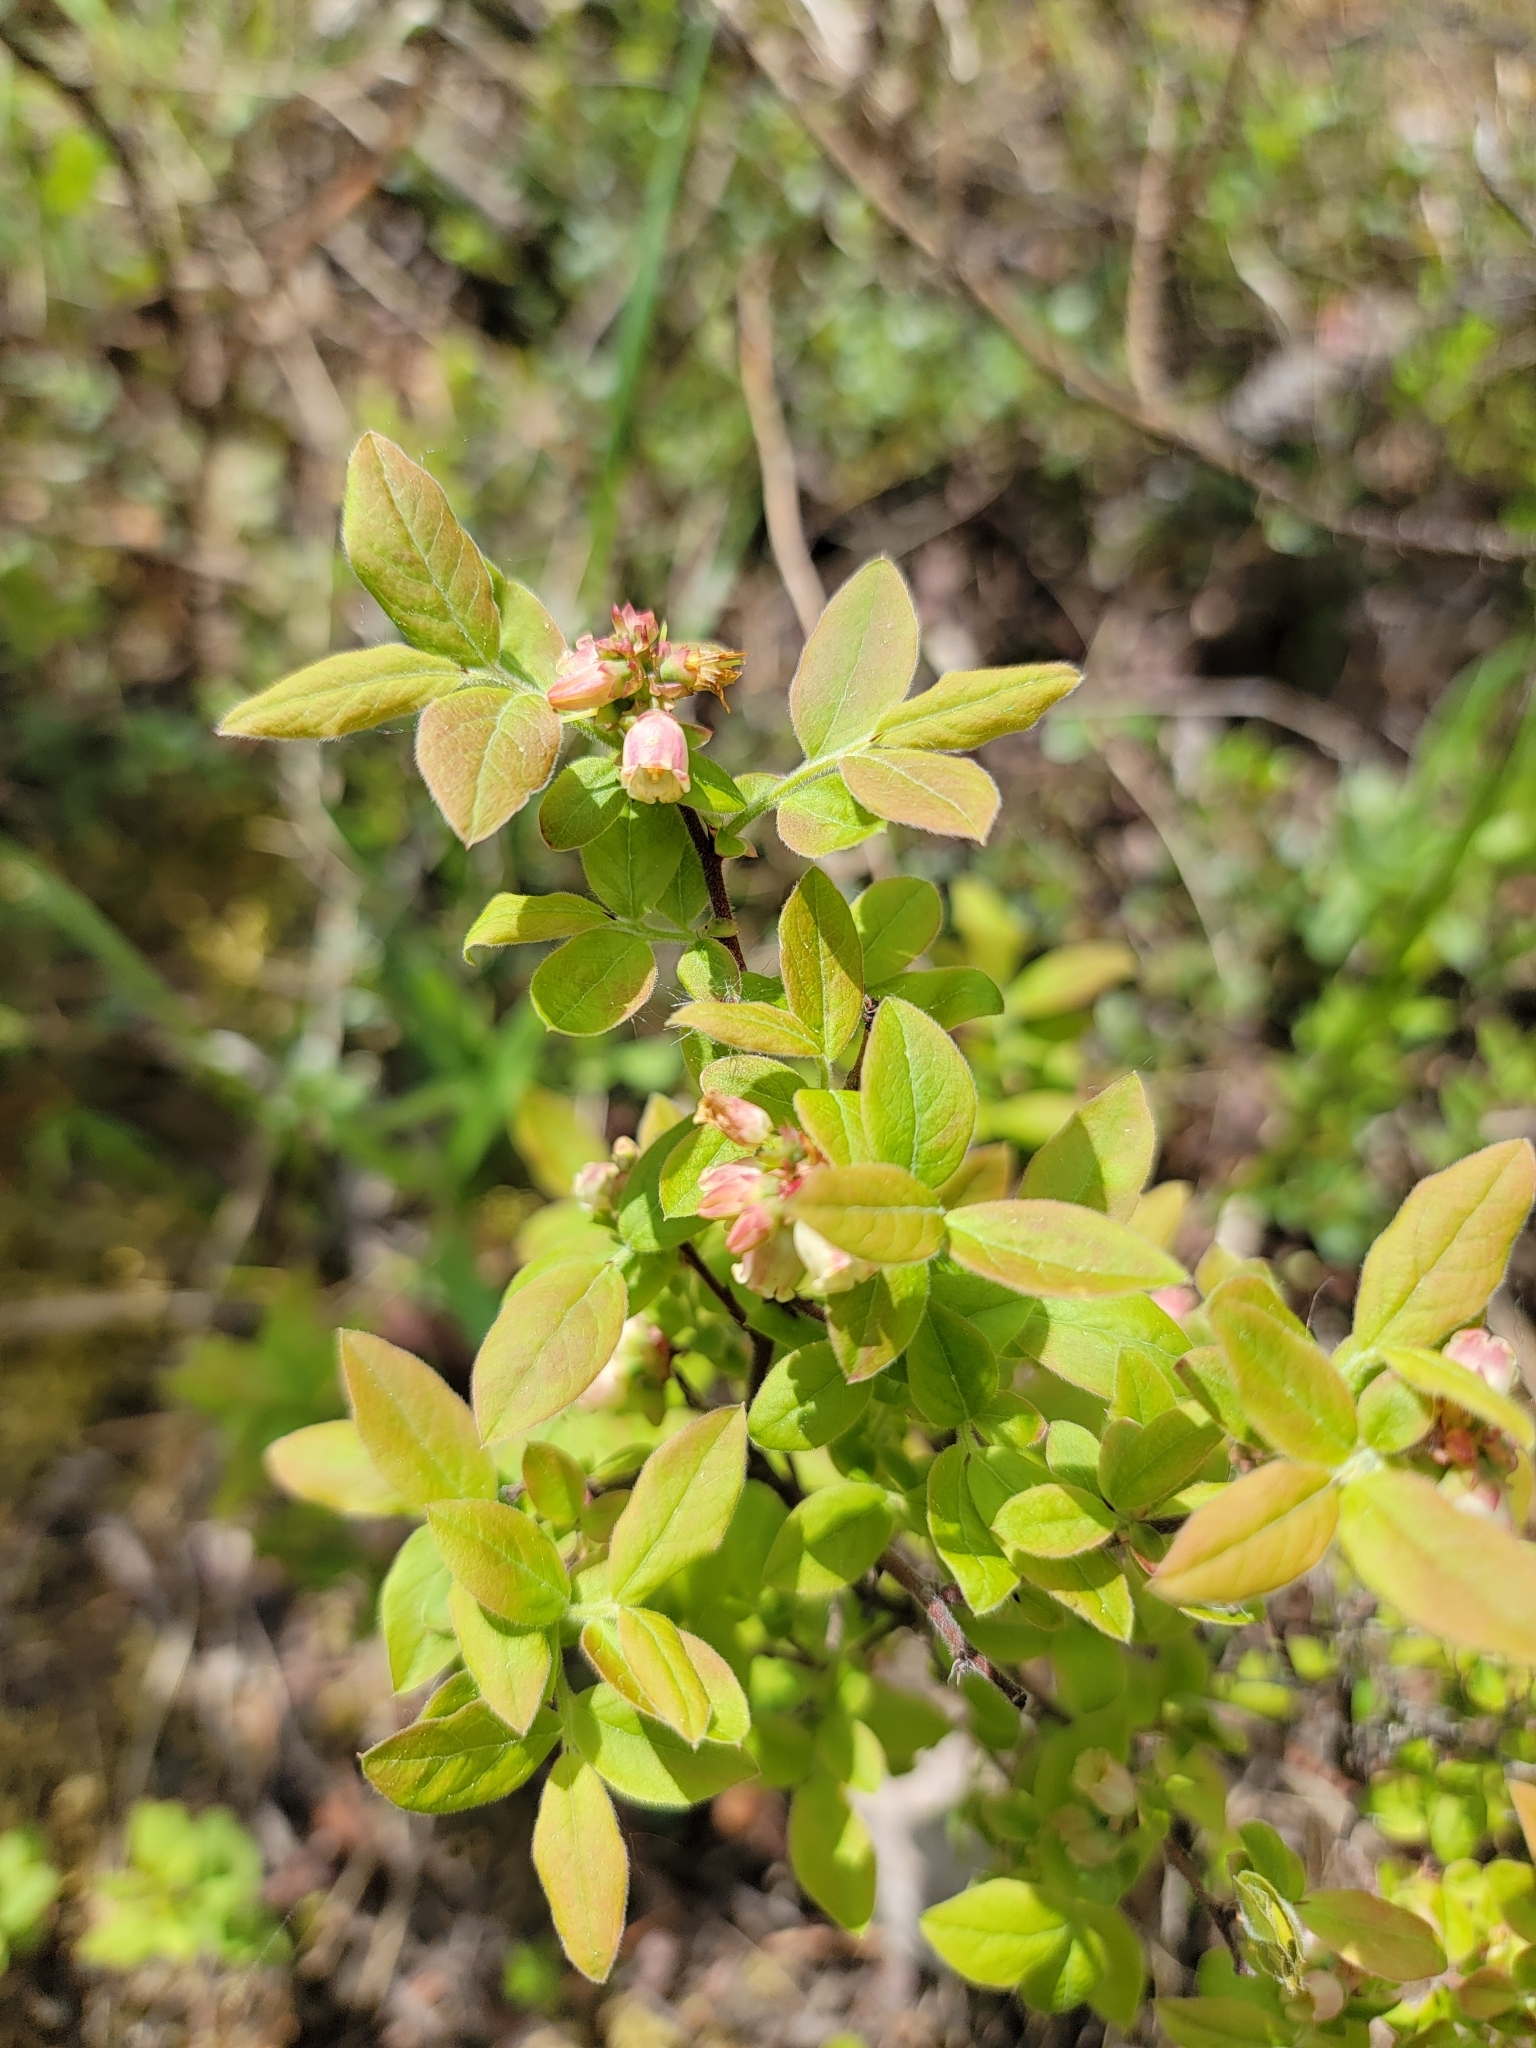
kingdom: Plantae
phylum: Tracheophyta
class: Magnoliopsida
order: Ericales
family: Ericaceae
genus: Vaccinium
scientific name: Vaccinium myrtilloides
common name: Canada blueberry
